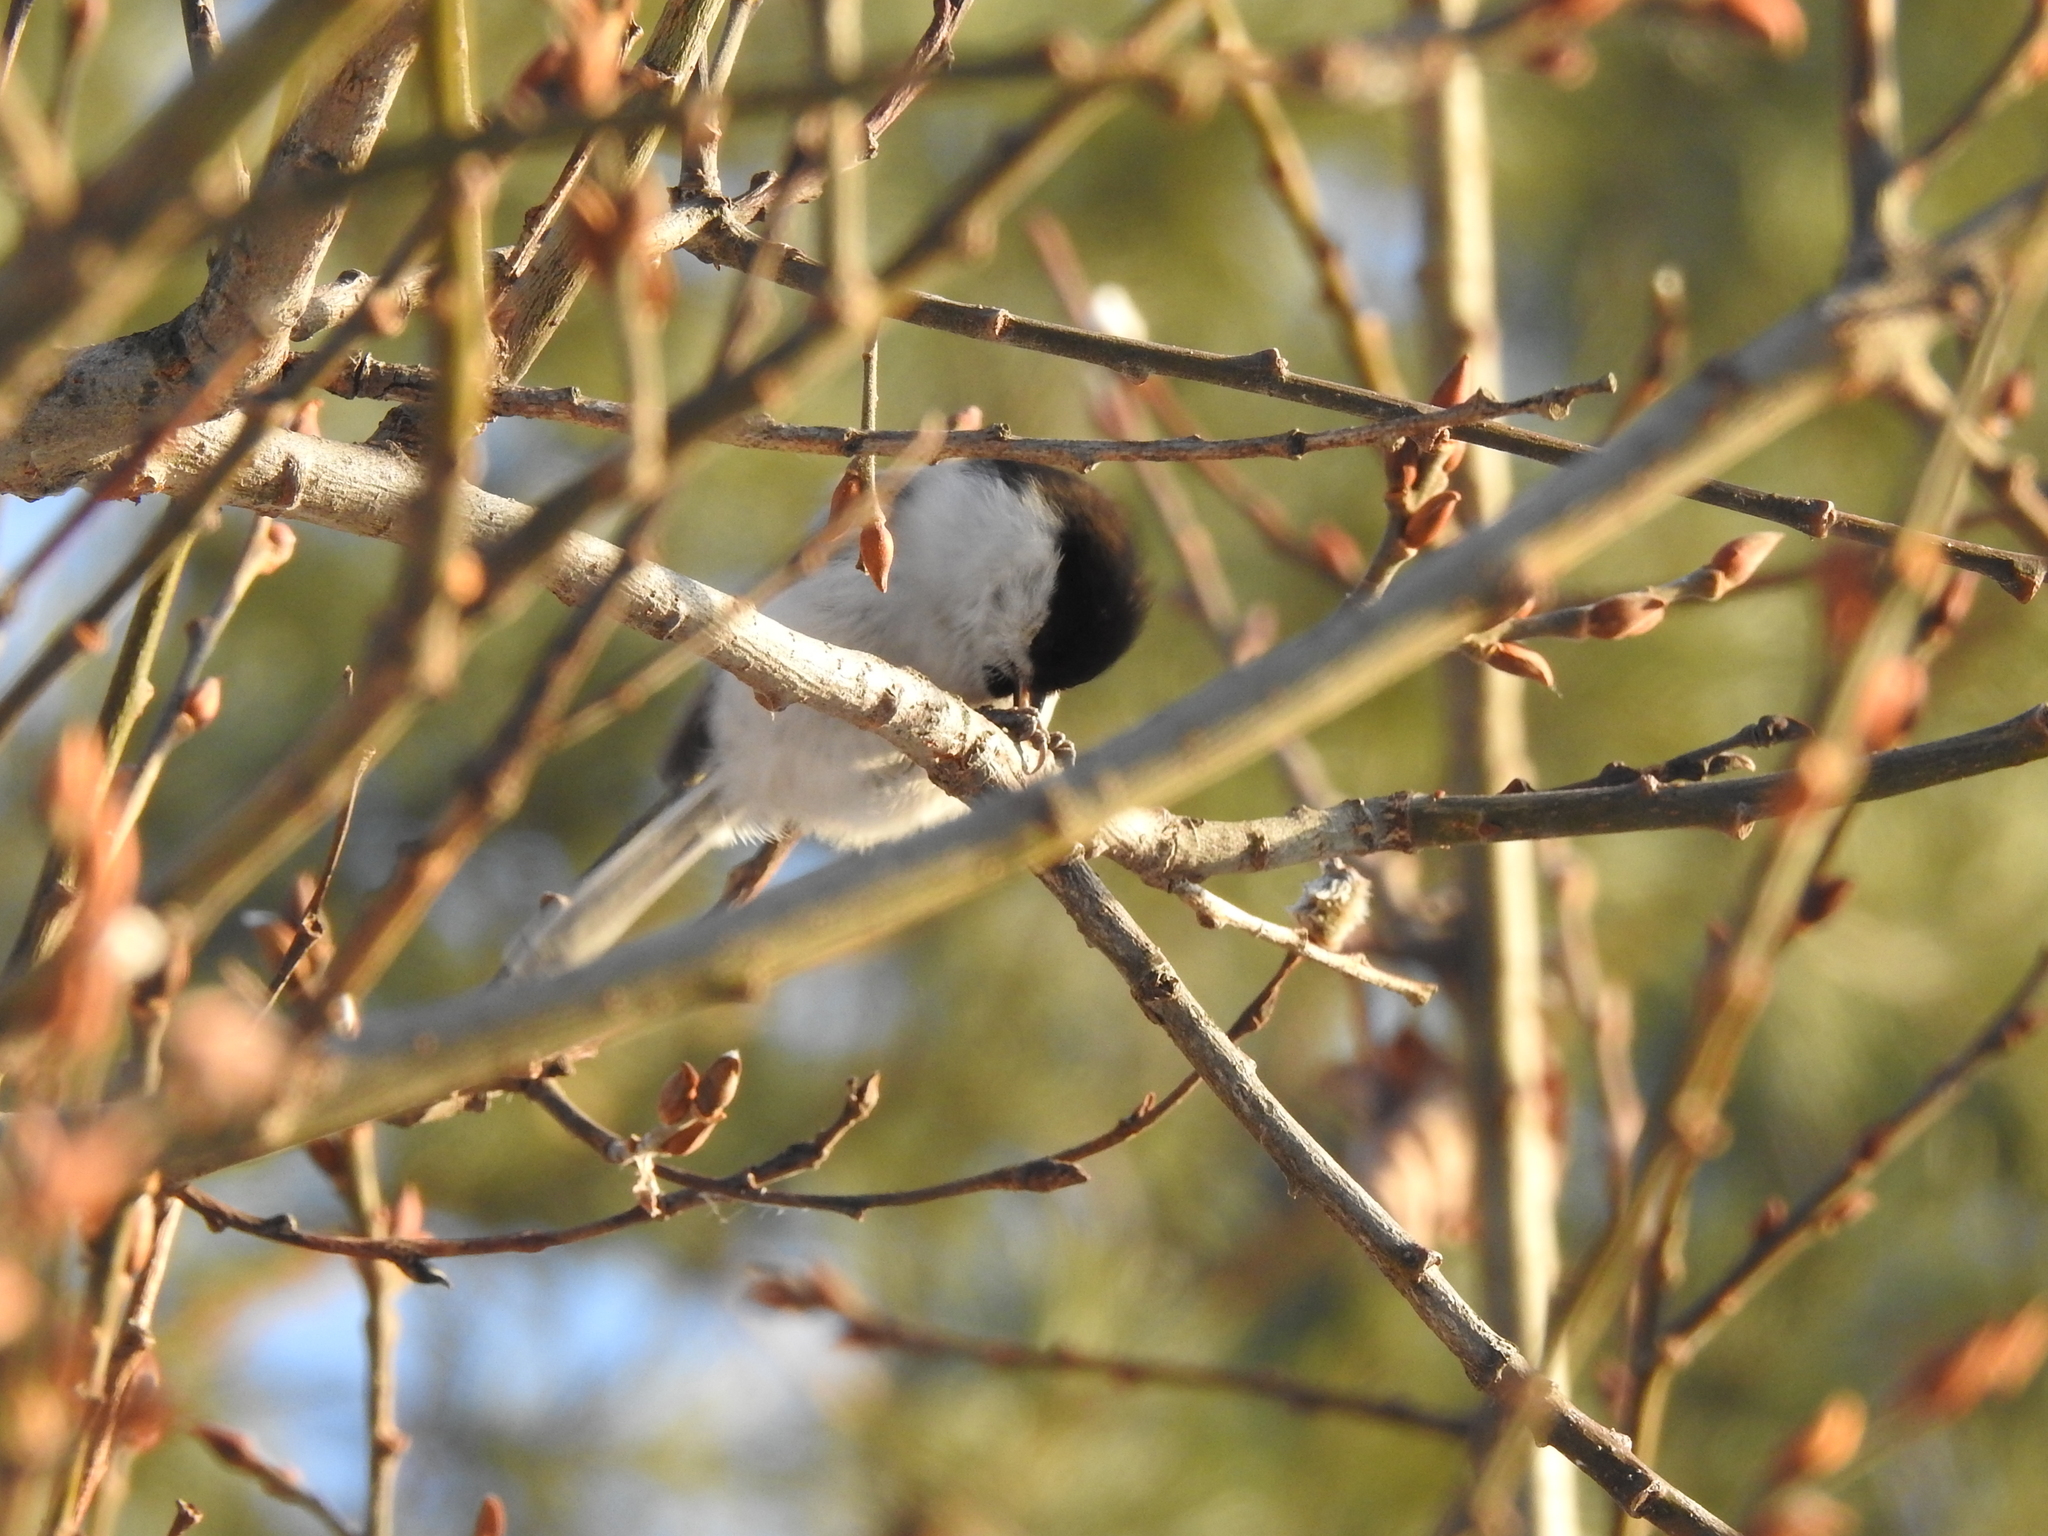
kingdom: Animalia
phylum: Chordata
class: Aves
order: Passeriformes
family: Paridae
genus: Poecile
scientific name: Poecile montanus
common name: Willow tit
